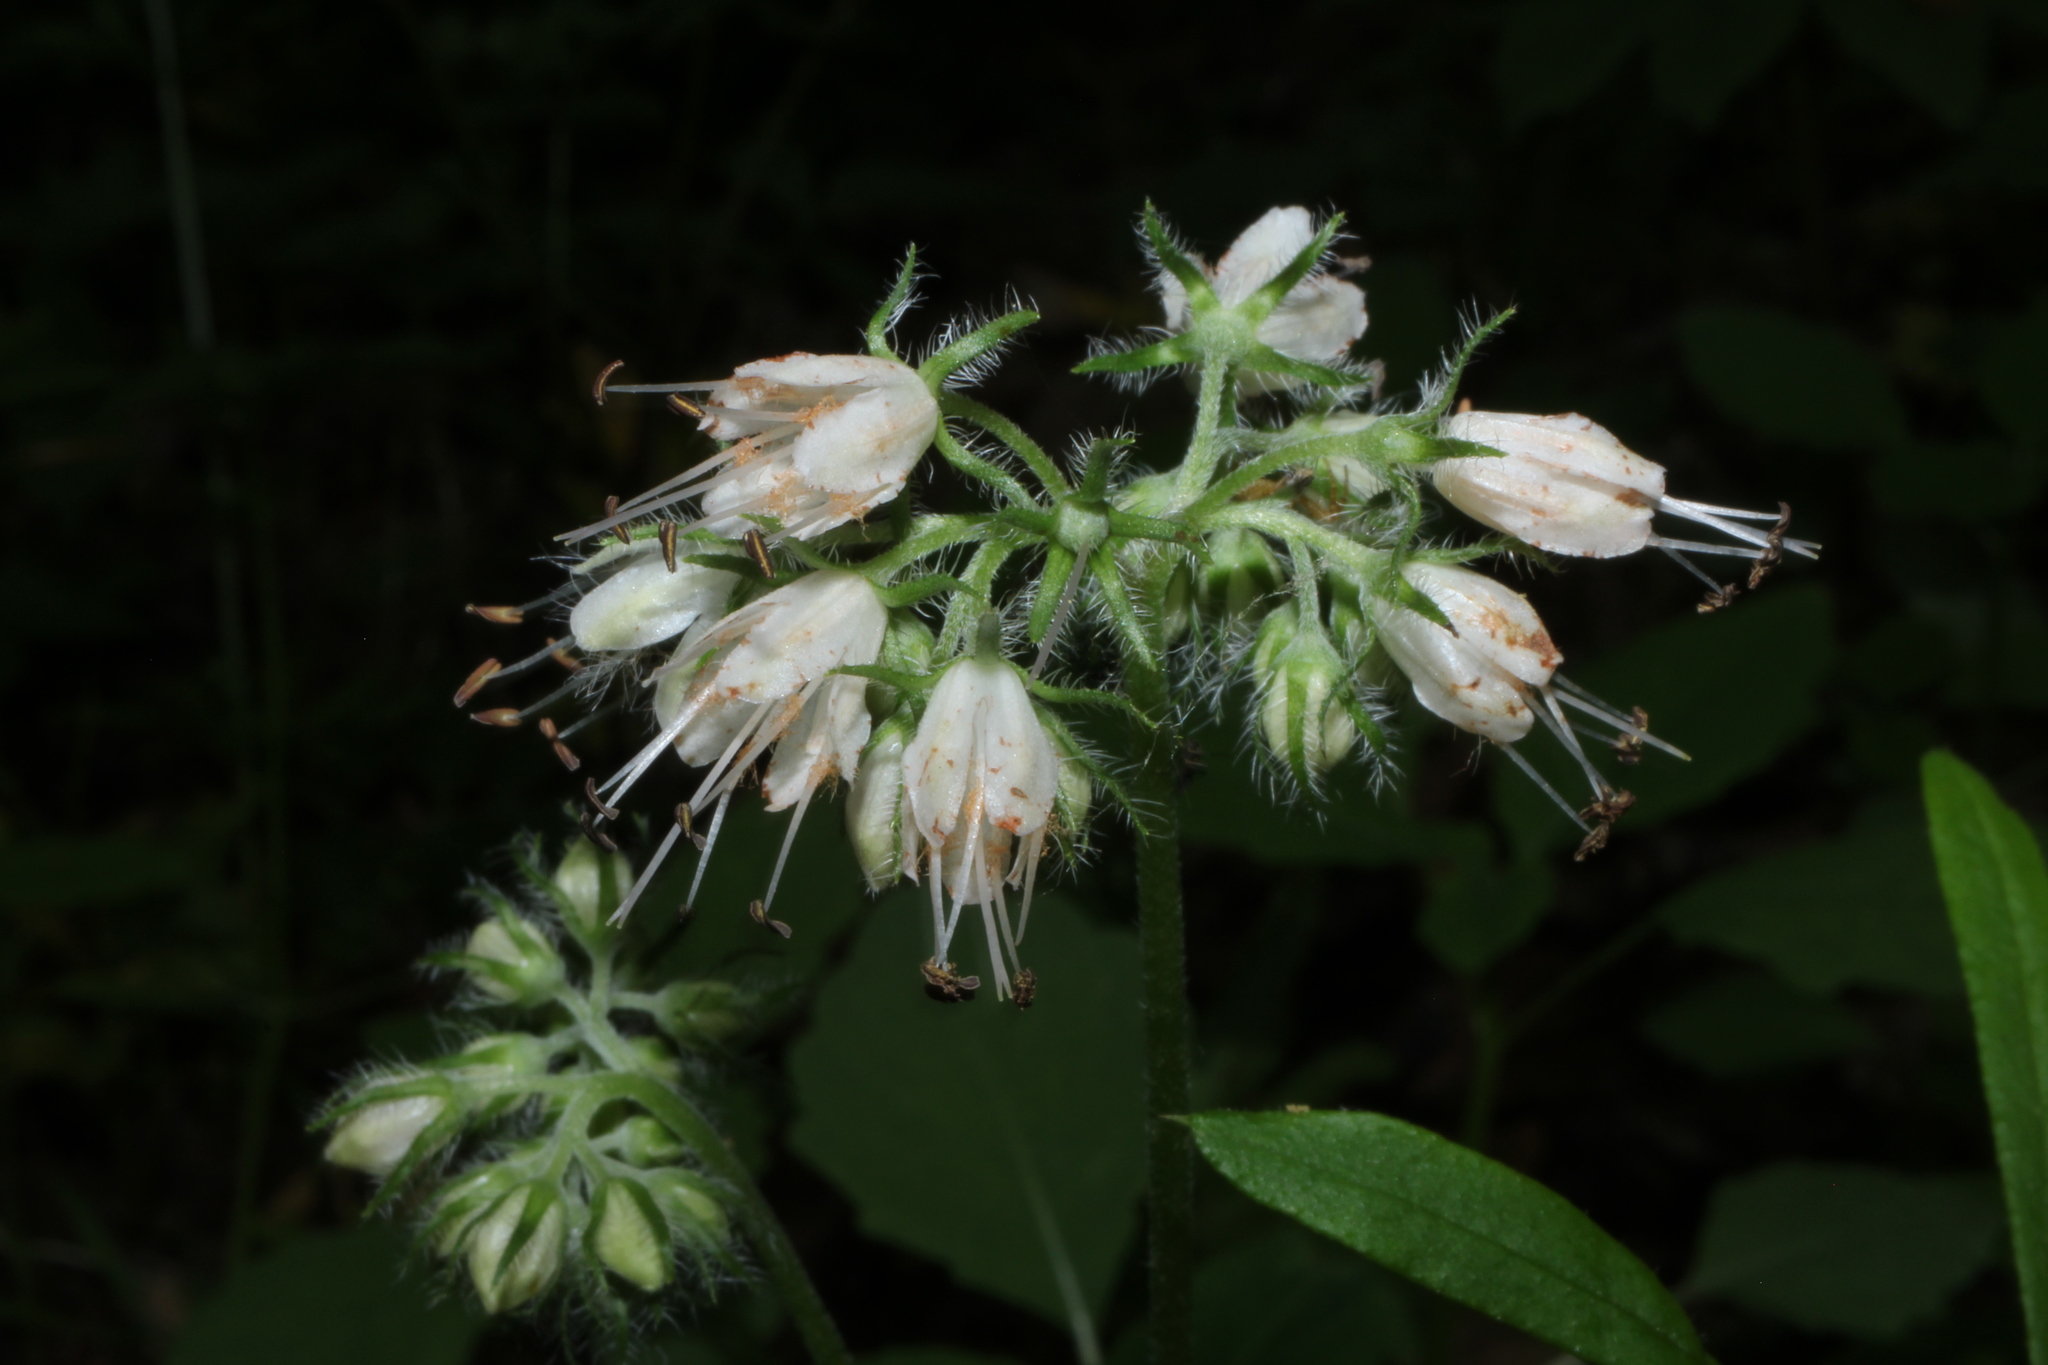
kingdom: Plantae
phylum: Tracheophyta
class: Magnoliopsida
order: Boraginales
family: Hydrophyllaceae
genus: Hydrophyllum
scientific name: Hydrophyllum virginianum
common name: Virginia waterleaf
